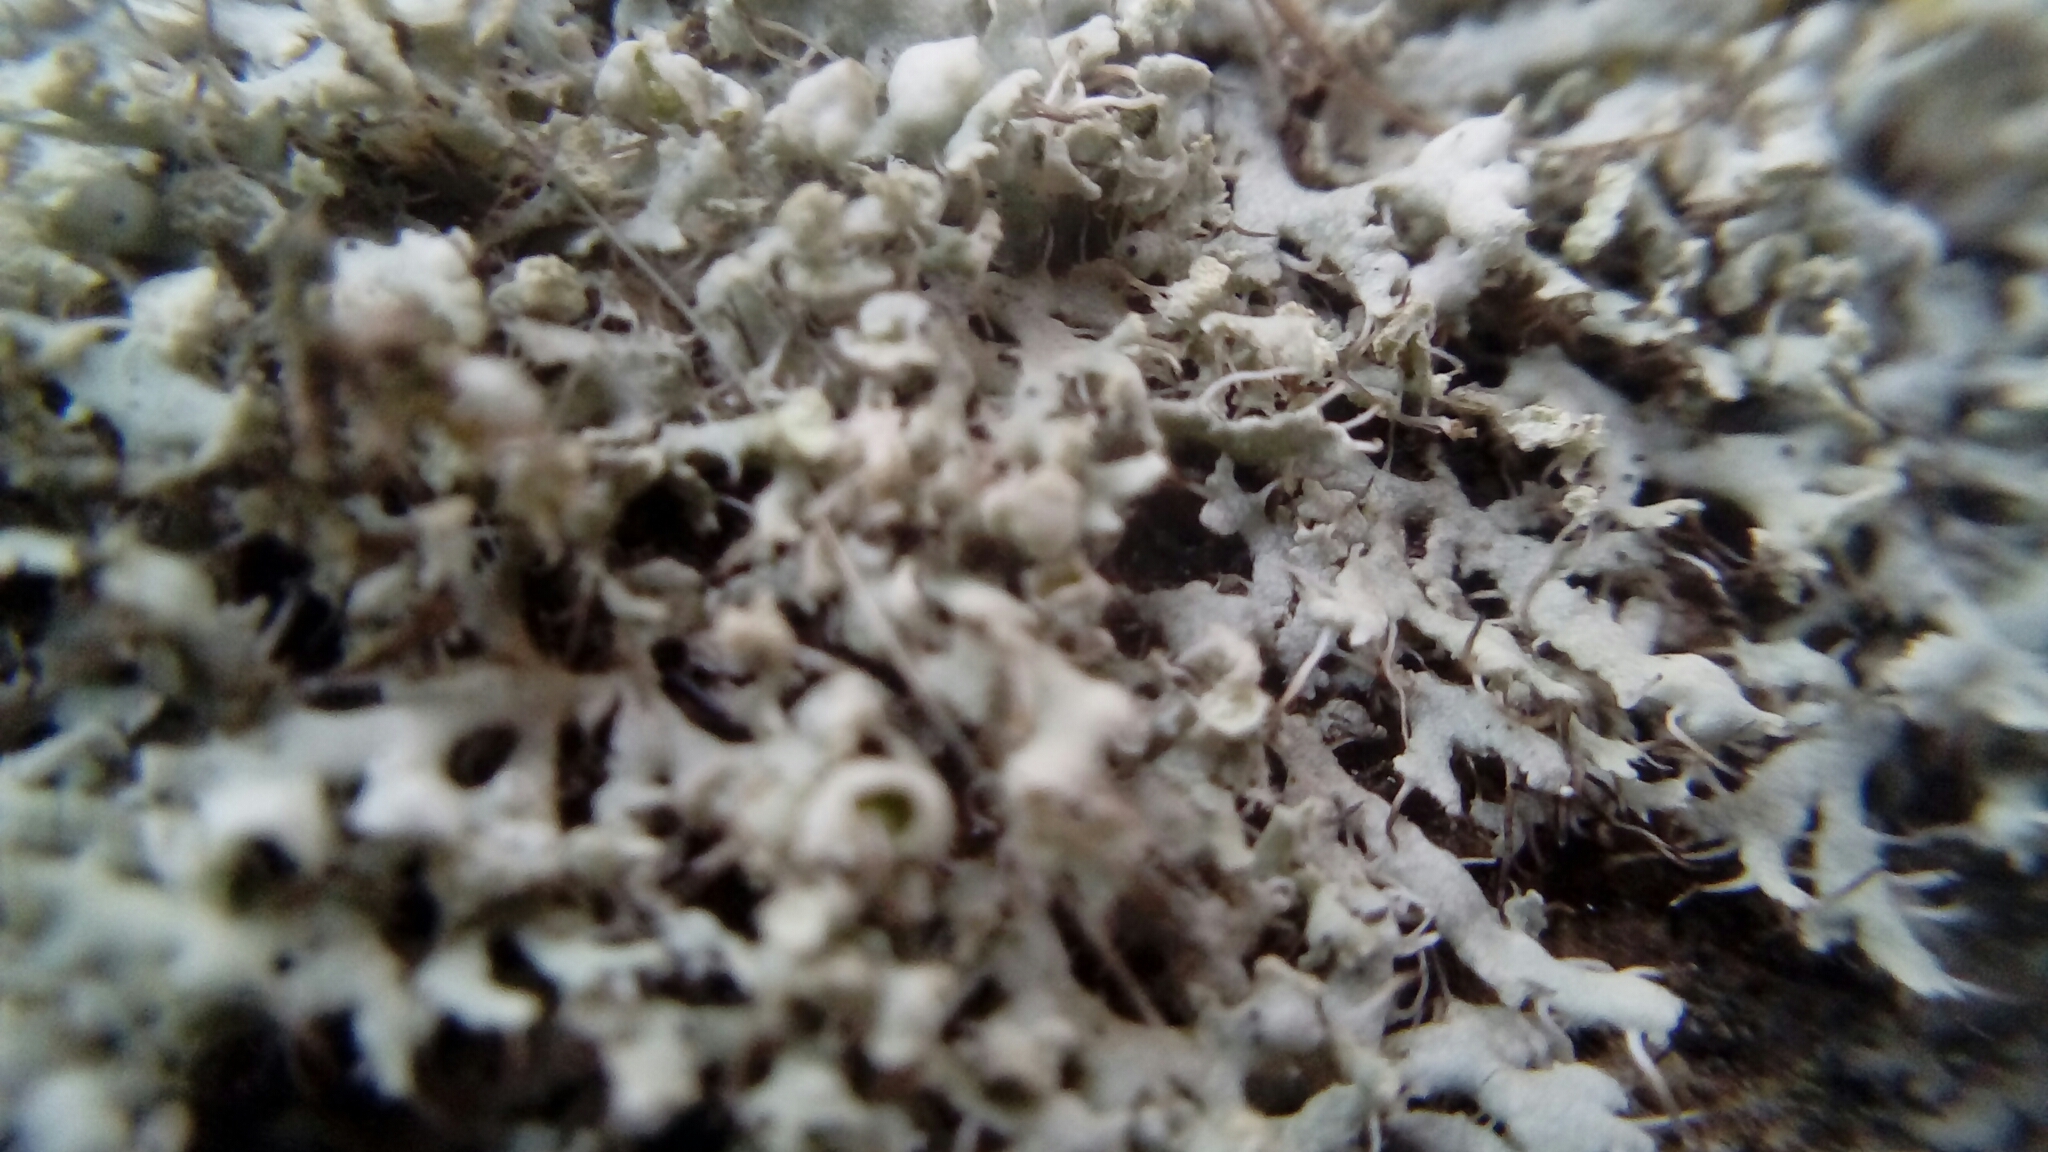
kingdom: Fungi
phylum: Ascomycota
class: Lecanoromycetes
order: Caliciales
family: Physciaceae
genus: Physcia
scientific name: Physcia adscendens
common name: Hooded rosette lichen
